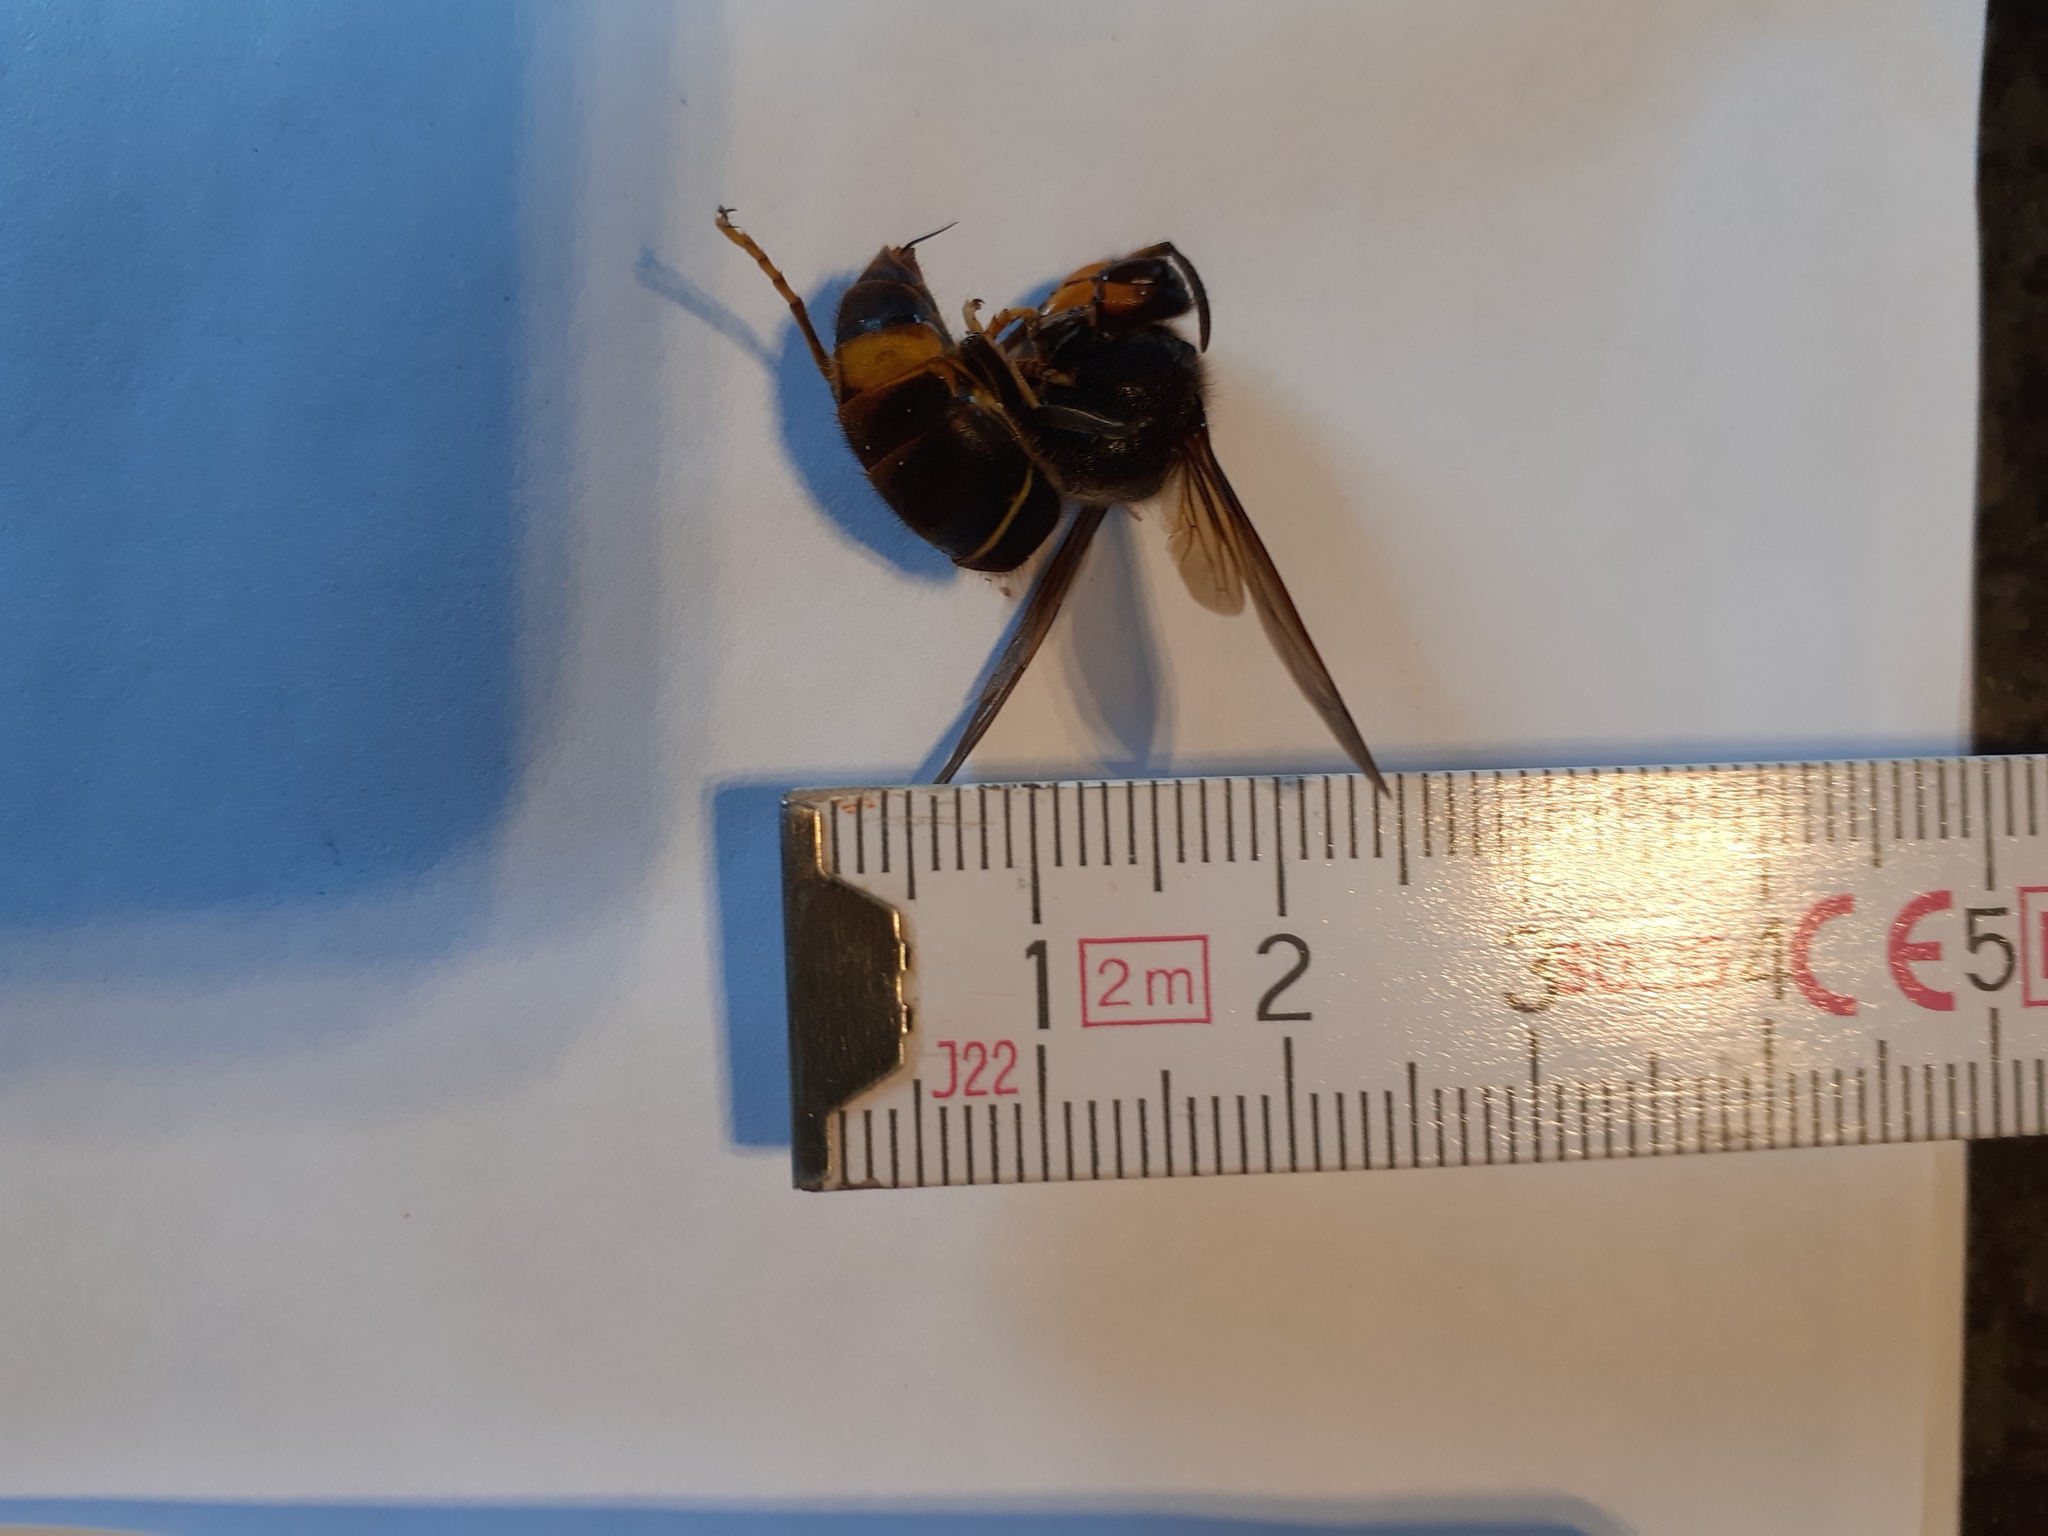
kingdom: Animalia
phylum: Arthropoda
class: Insecta
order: Hymenoptera
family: Vespidae
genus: Vespa
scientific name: Vespa velutina
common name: Asian hornet
